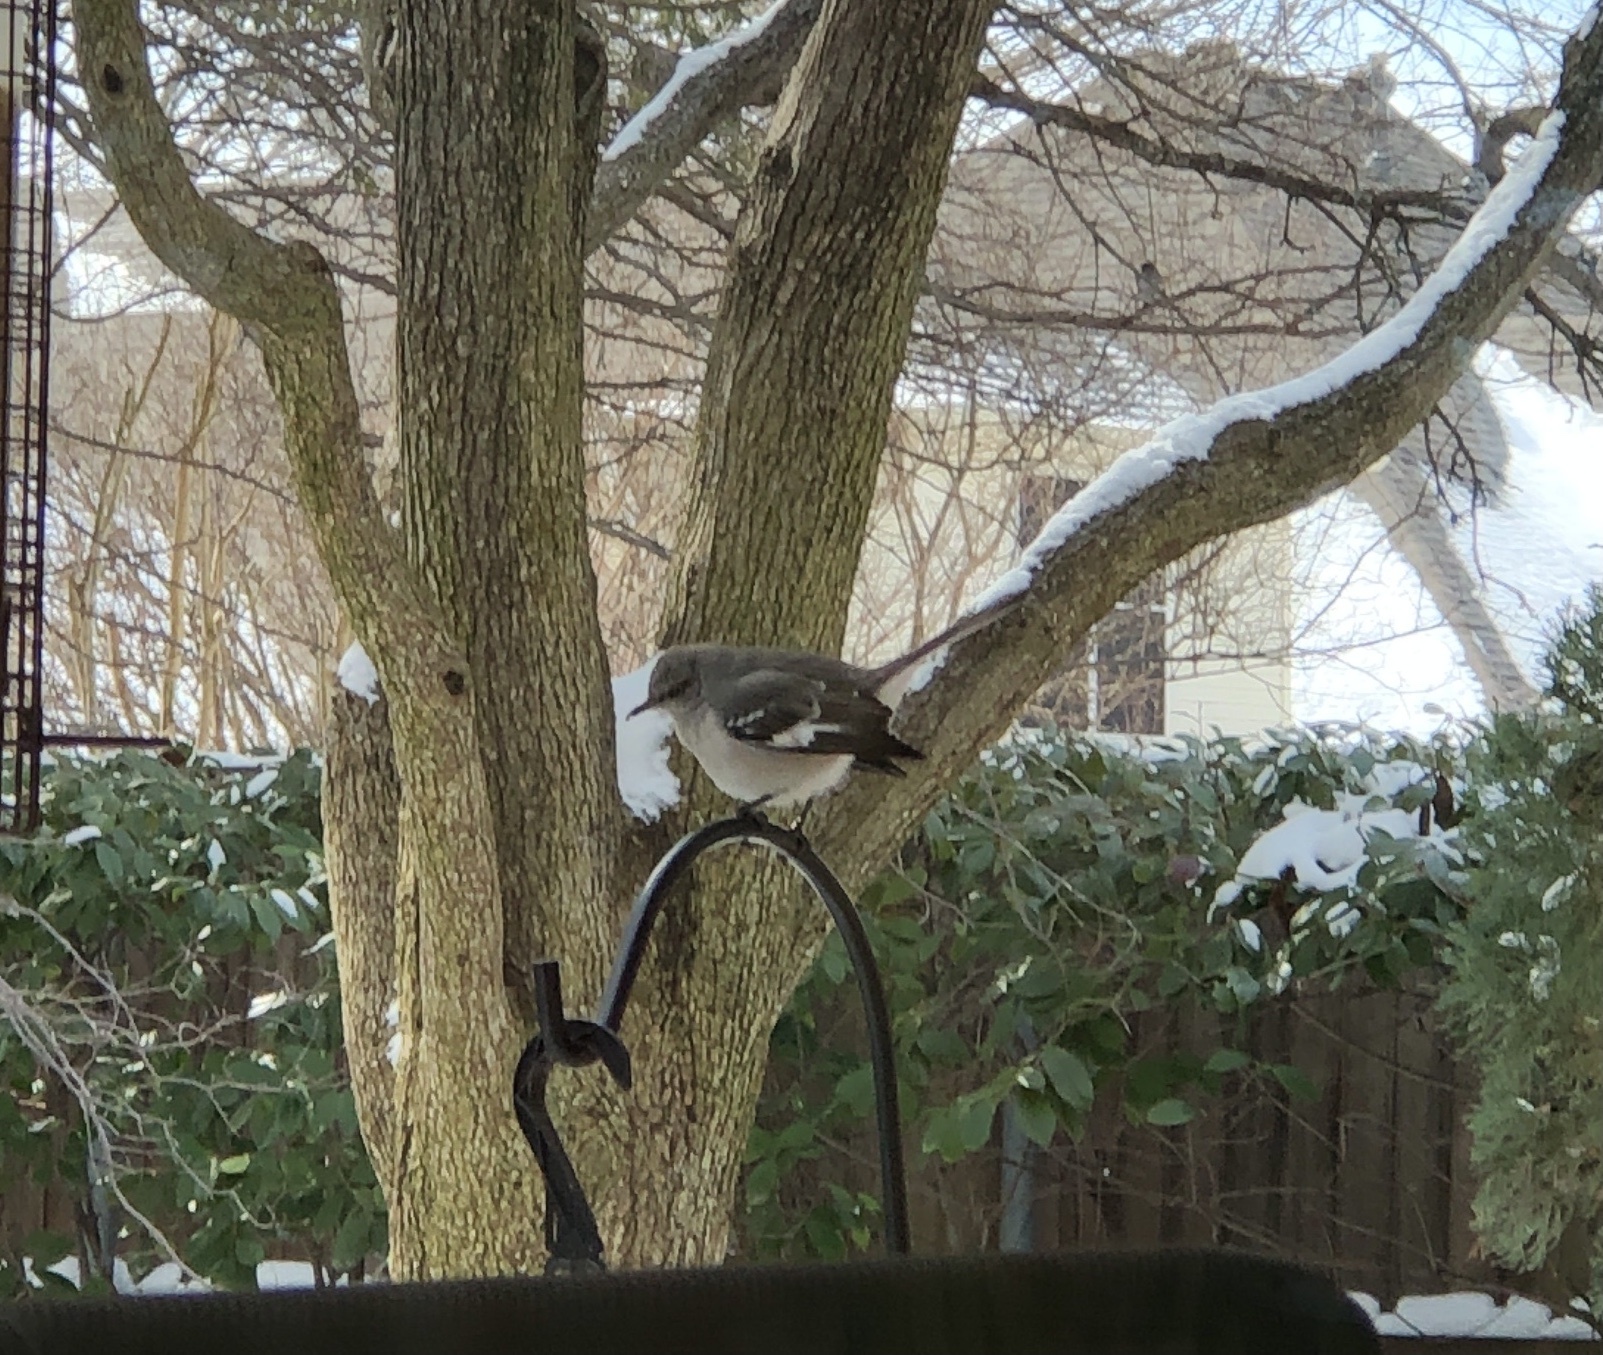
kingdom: Animalia
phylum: Chordata
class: Aves
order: Passeriformes
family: Mimidae
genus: Mimus
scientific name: Mimus polyglottos
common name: Northern mockingbird
